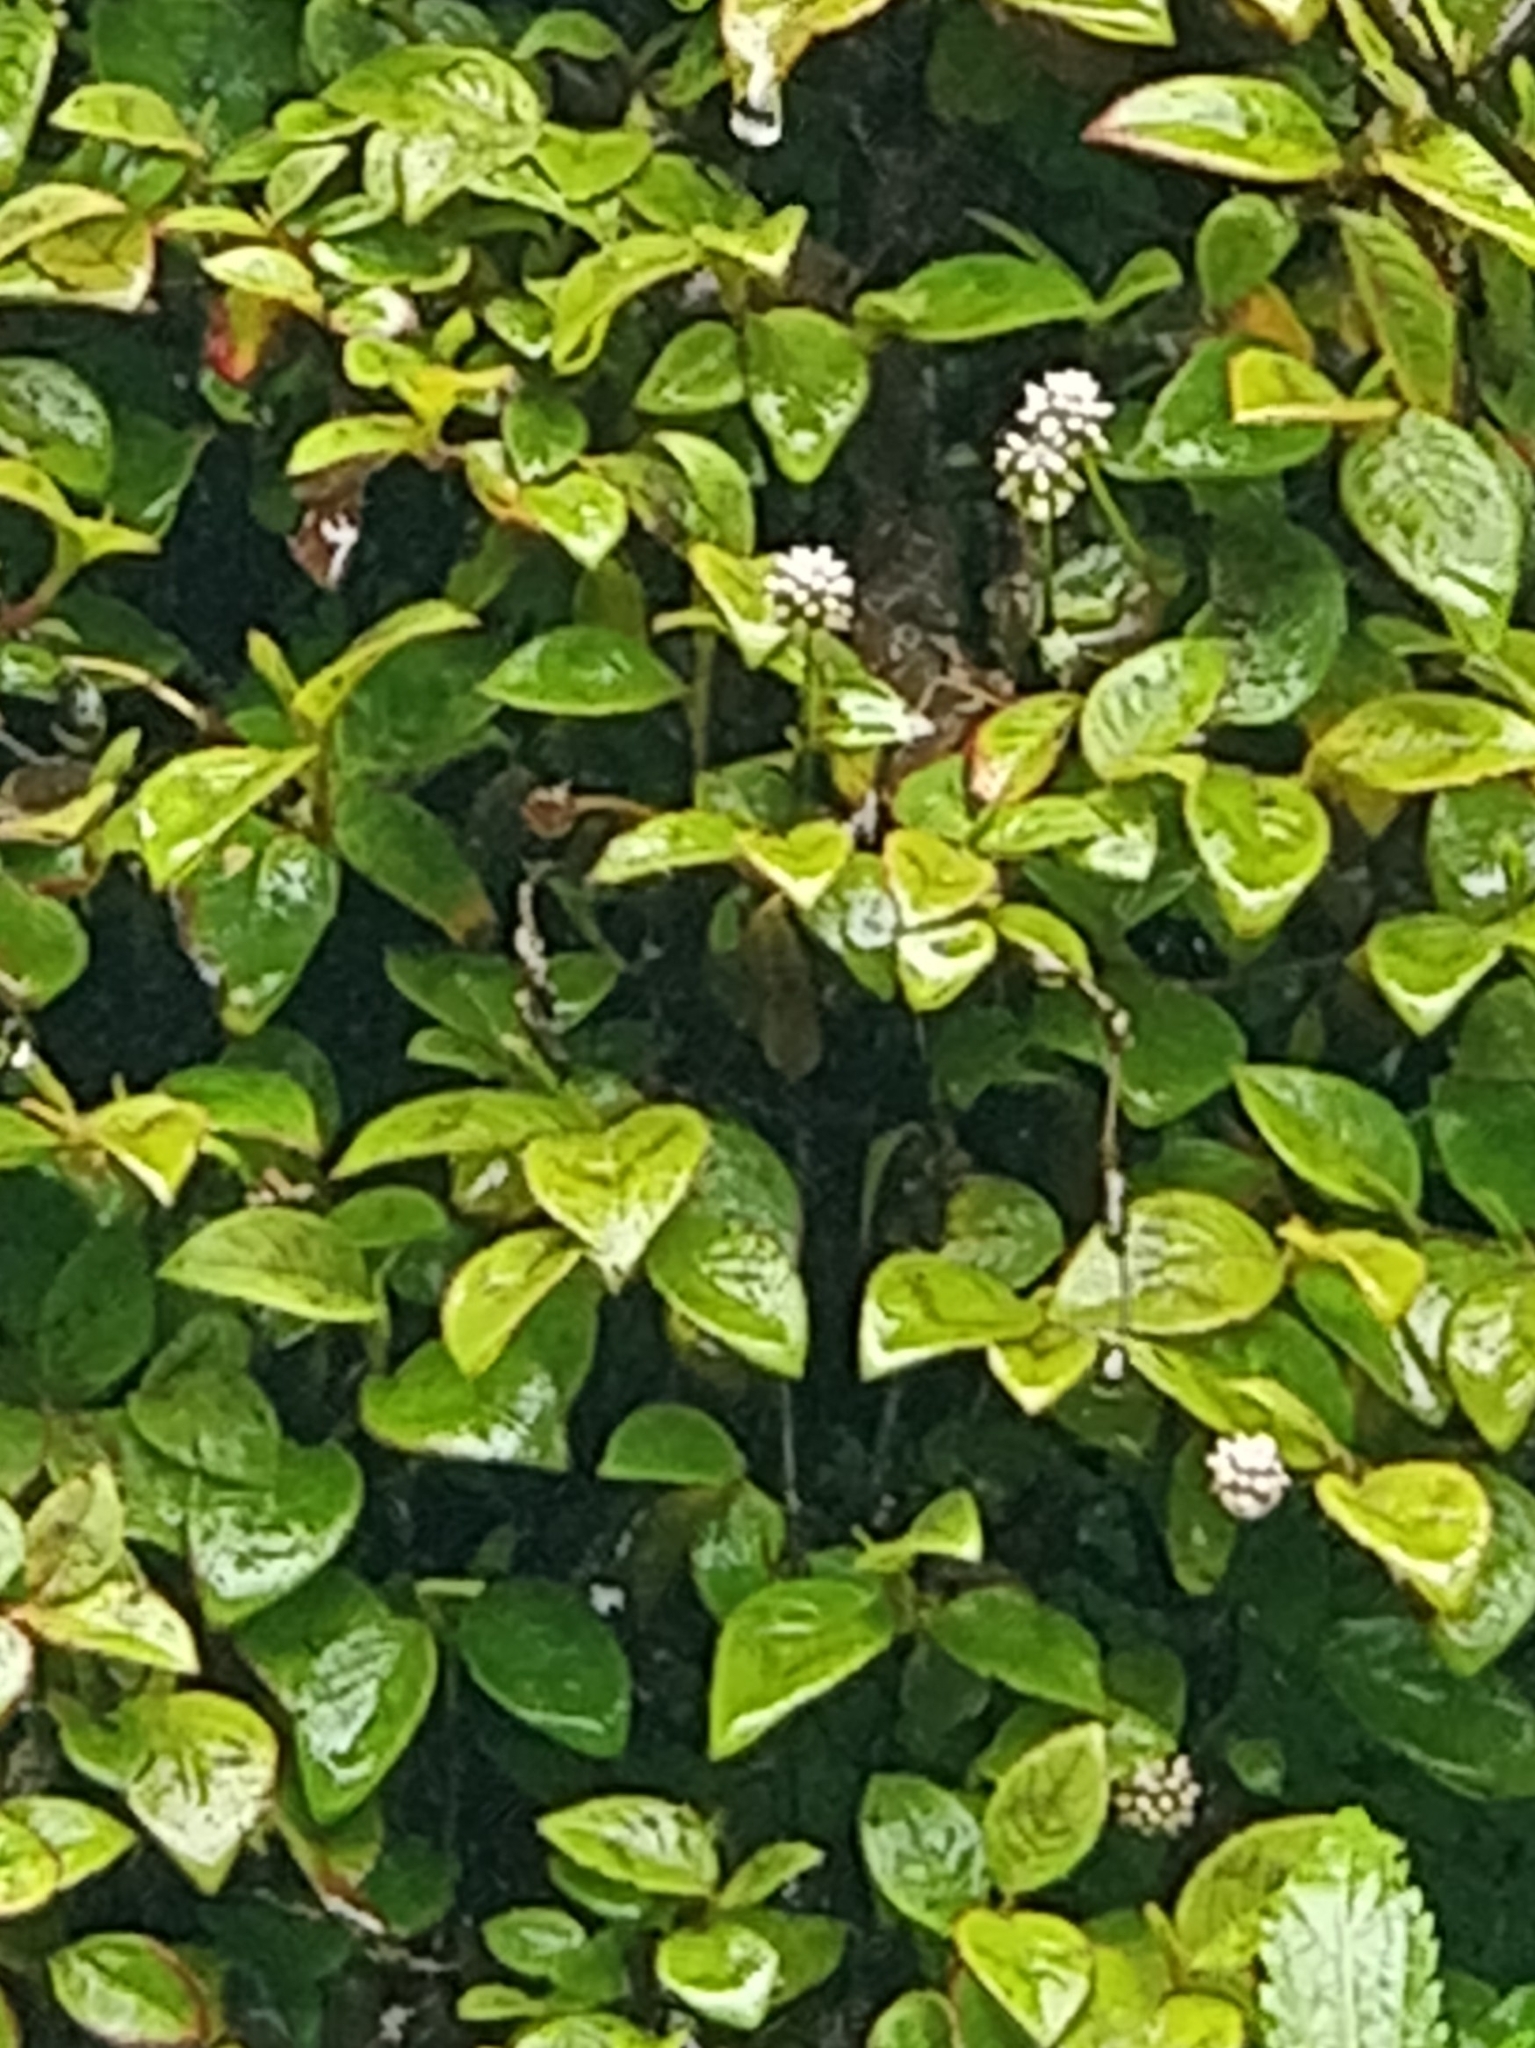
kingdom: Plantae
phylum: Tracheophyta
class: Magnoliopsida
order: Caryophyllales
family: Polygonaceae
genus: Persicaria
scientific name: Persicaria capitata
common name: Pinkhead smartweed
